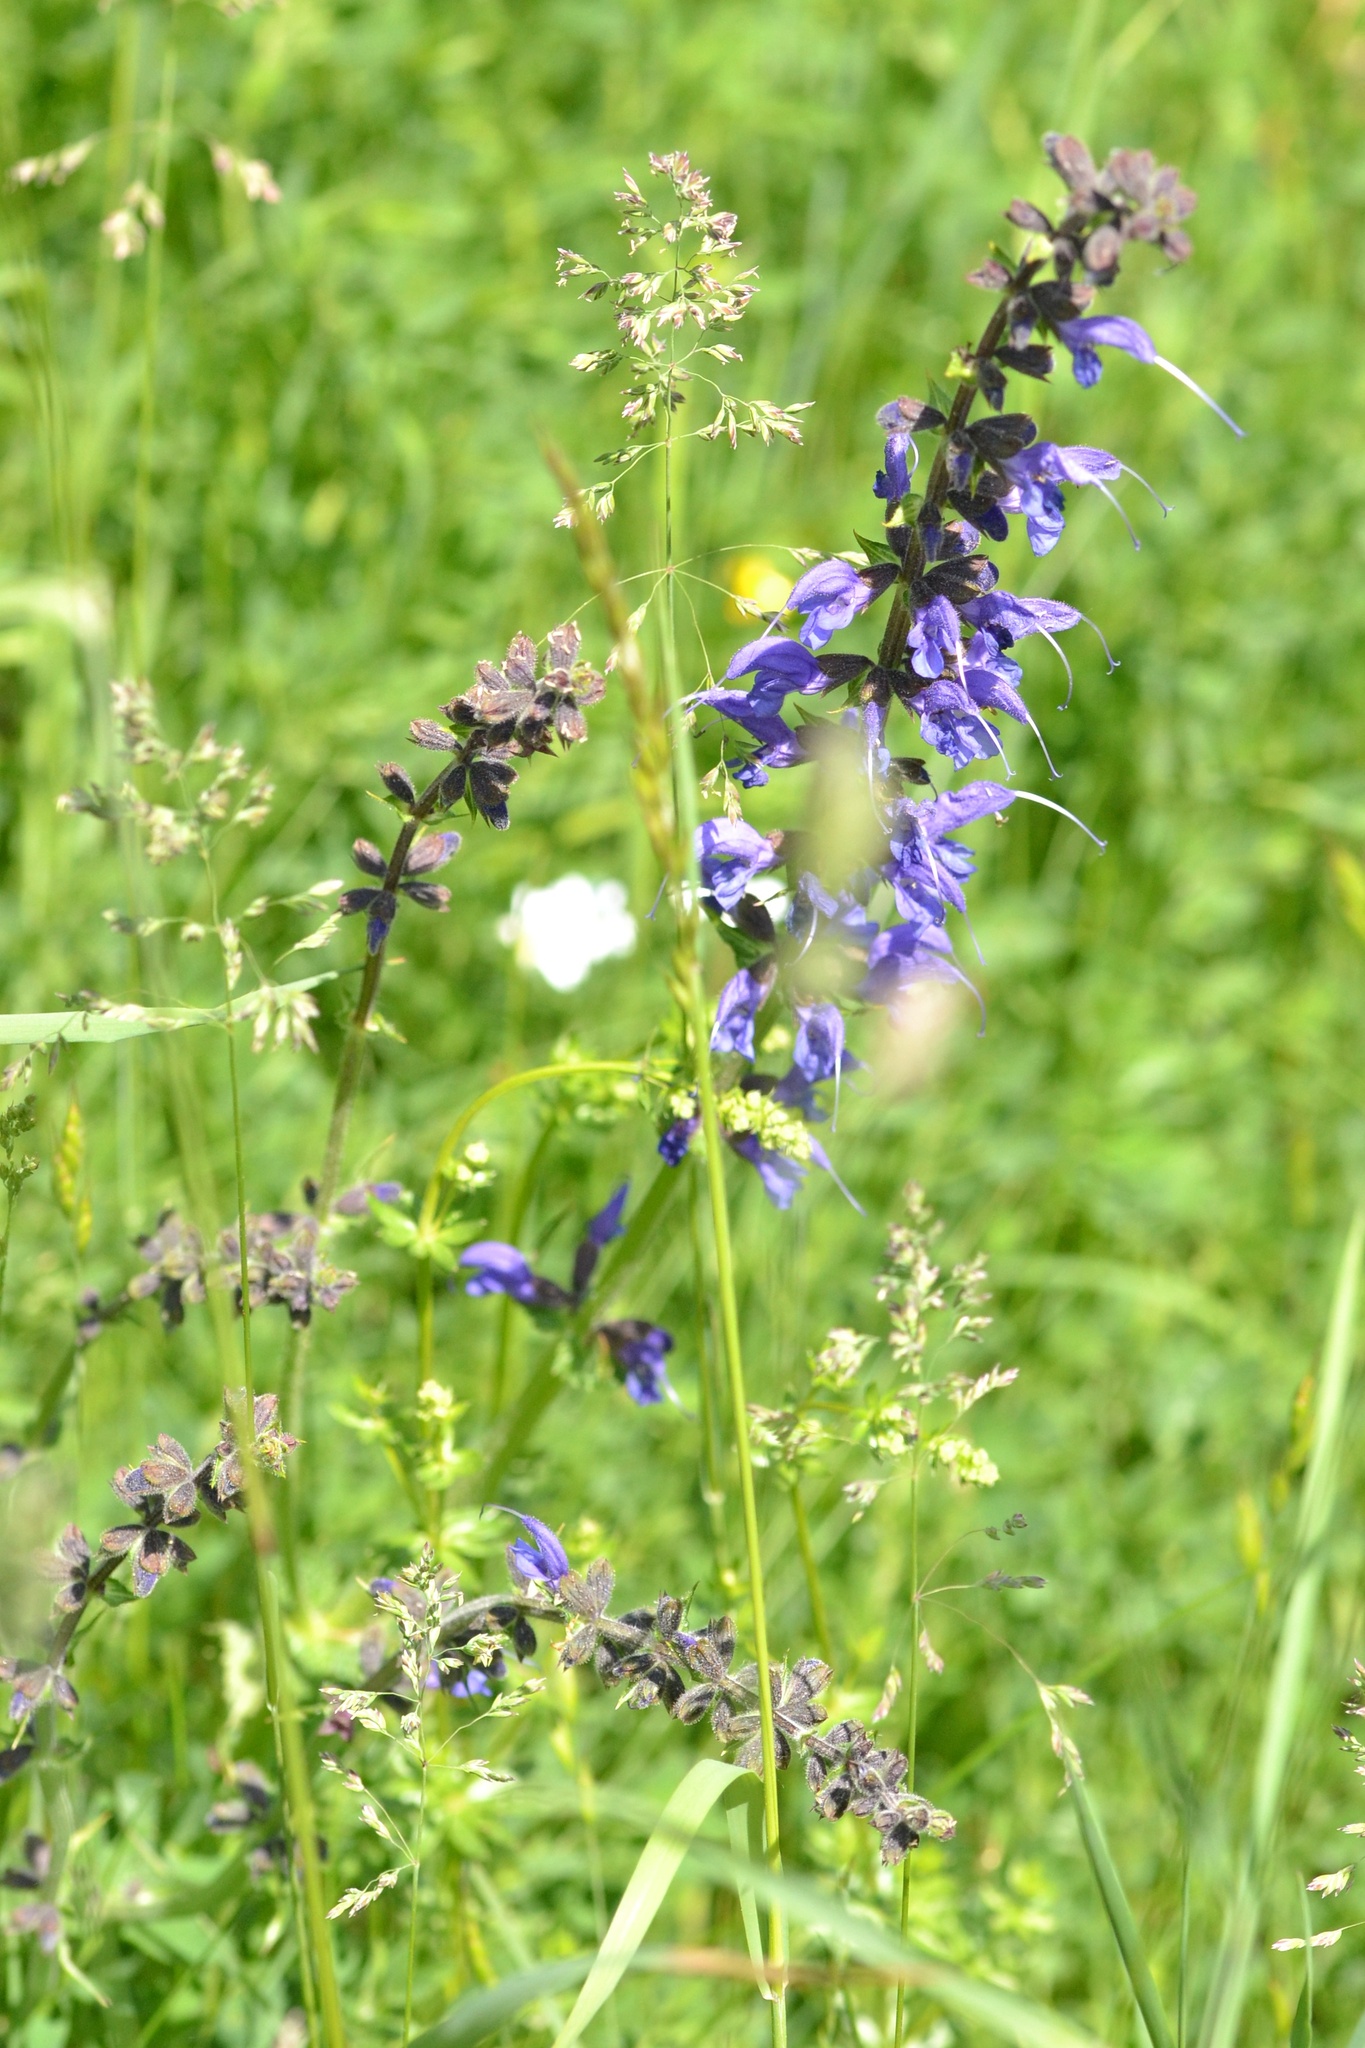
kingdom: Plantae
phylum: Tracheophyta
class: Magnoliopsida
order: Lamiales
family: Lamiaceae
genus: Salvia
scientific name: Salvia pratensis
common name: Meadow sage
